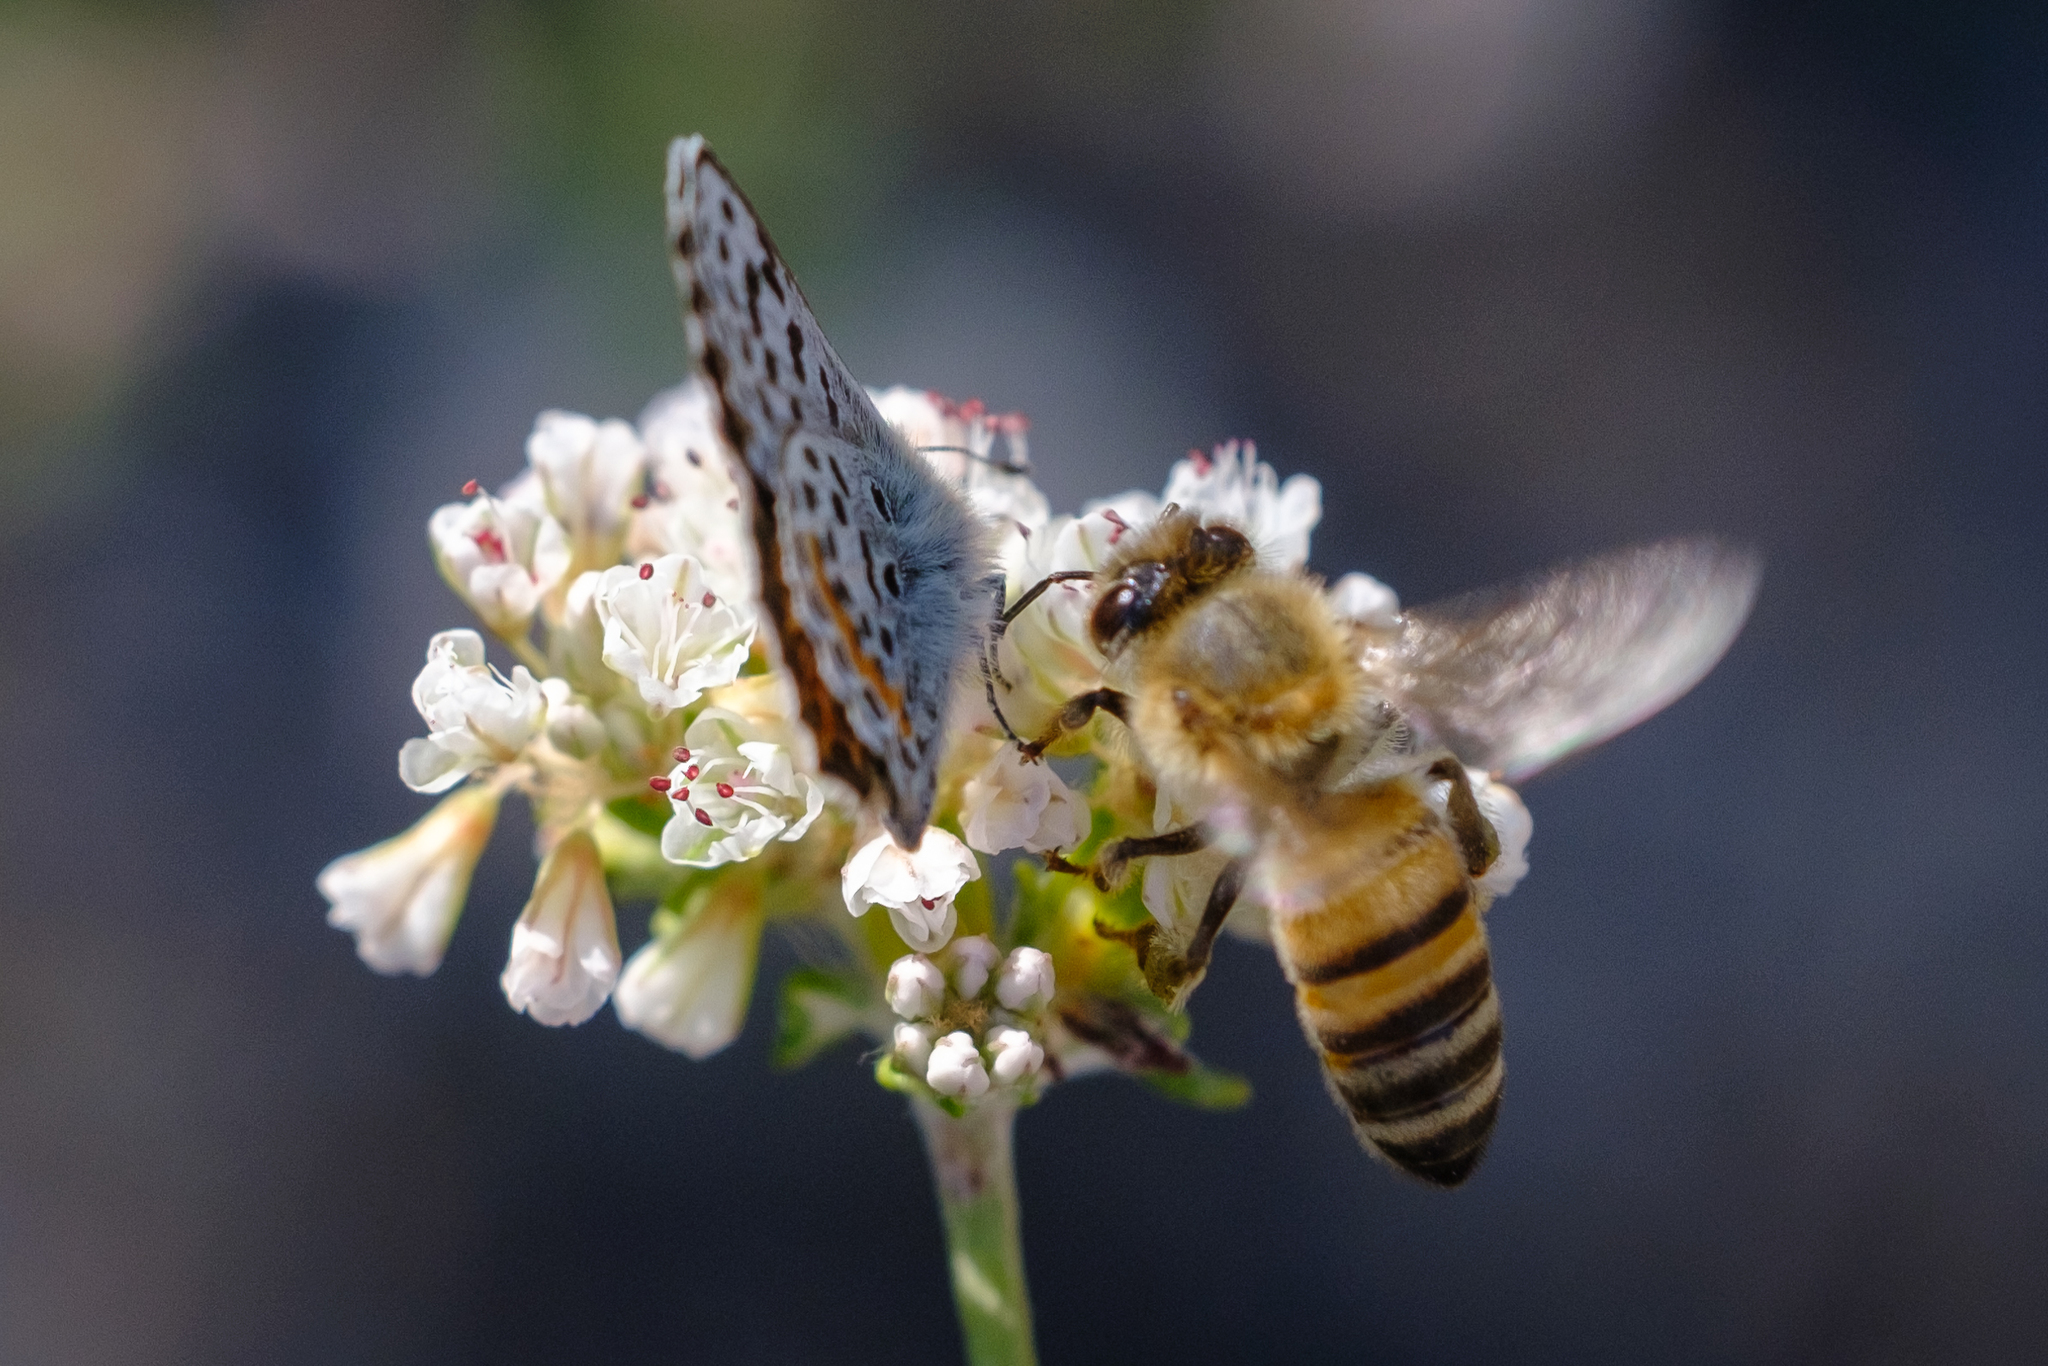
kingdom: Animalia
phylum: Arthropoda
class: Insecta
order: Lepidoptera
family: Lycaenidae
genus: Euphilotes
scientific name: Euphilotes battoides
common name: Square-spotted blue
